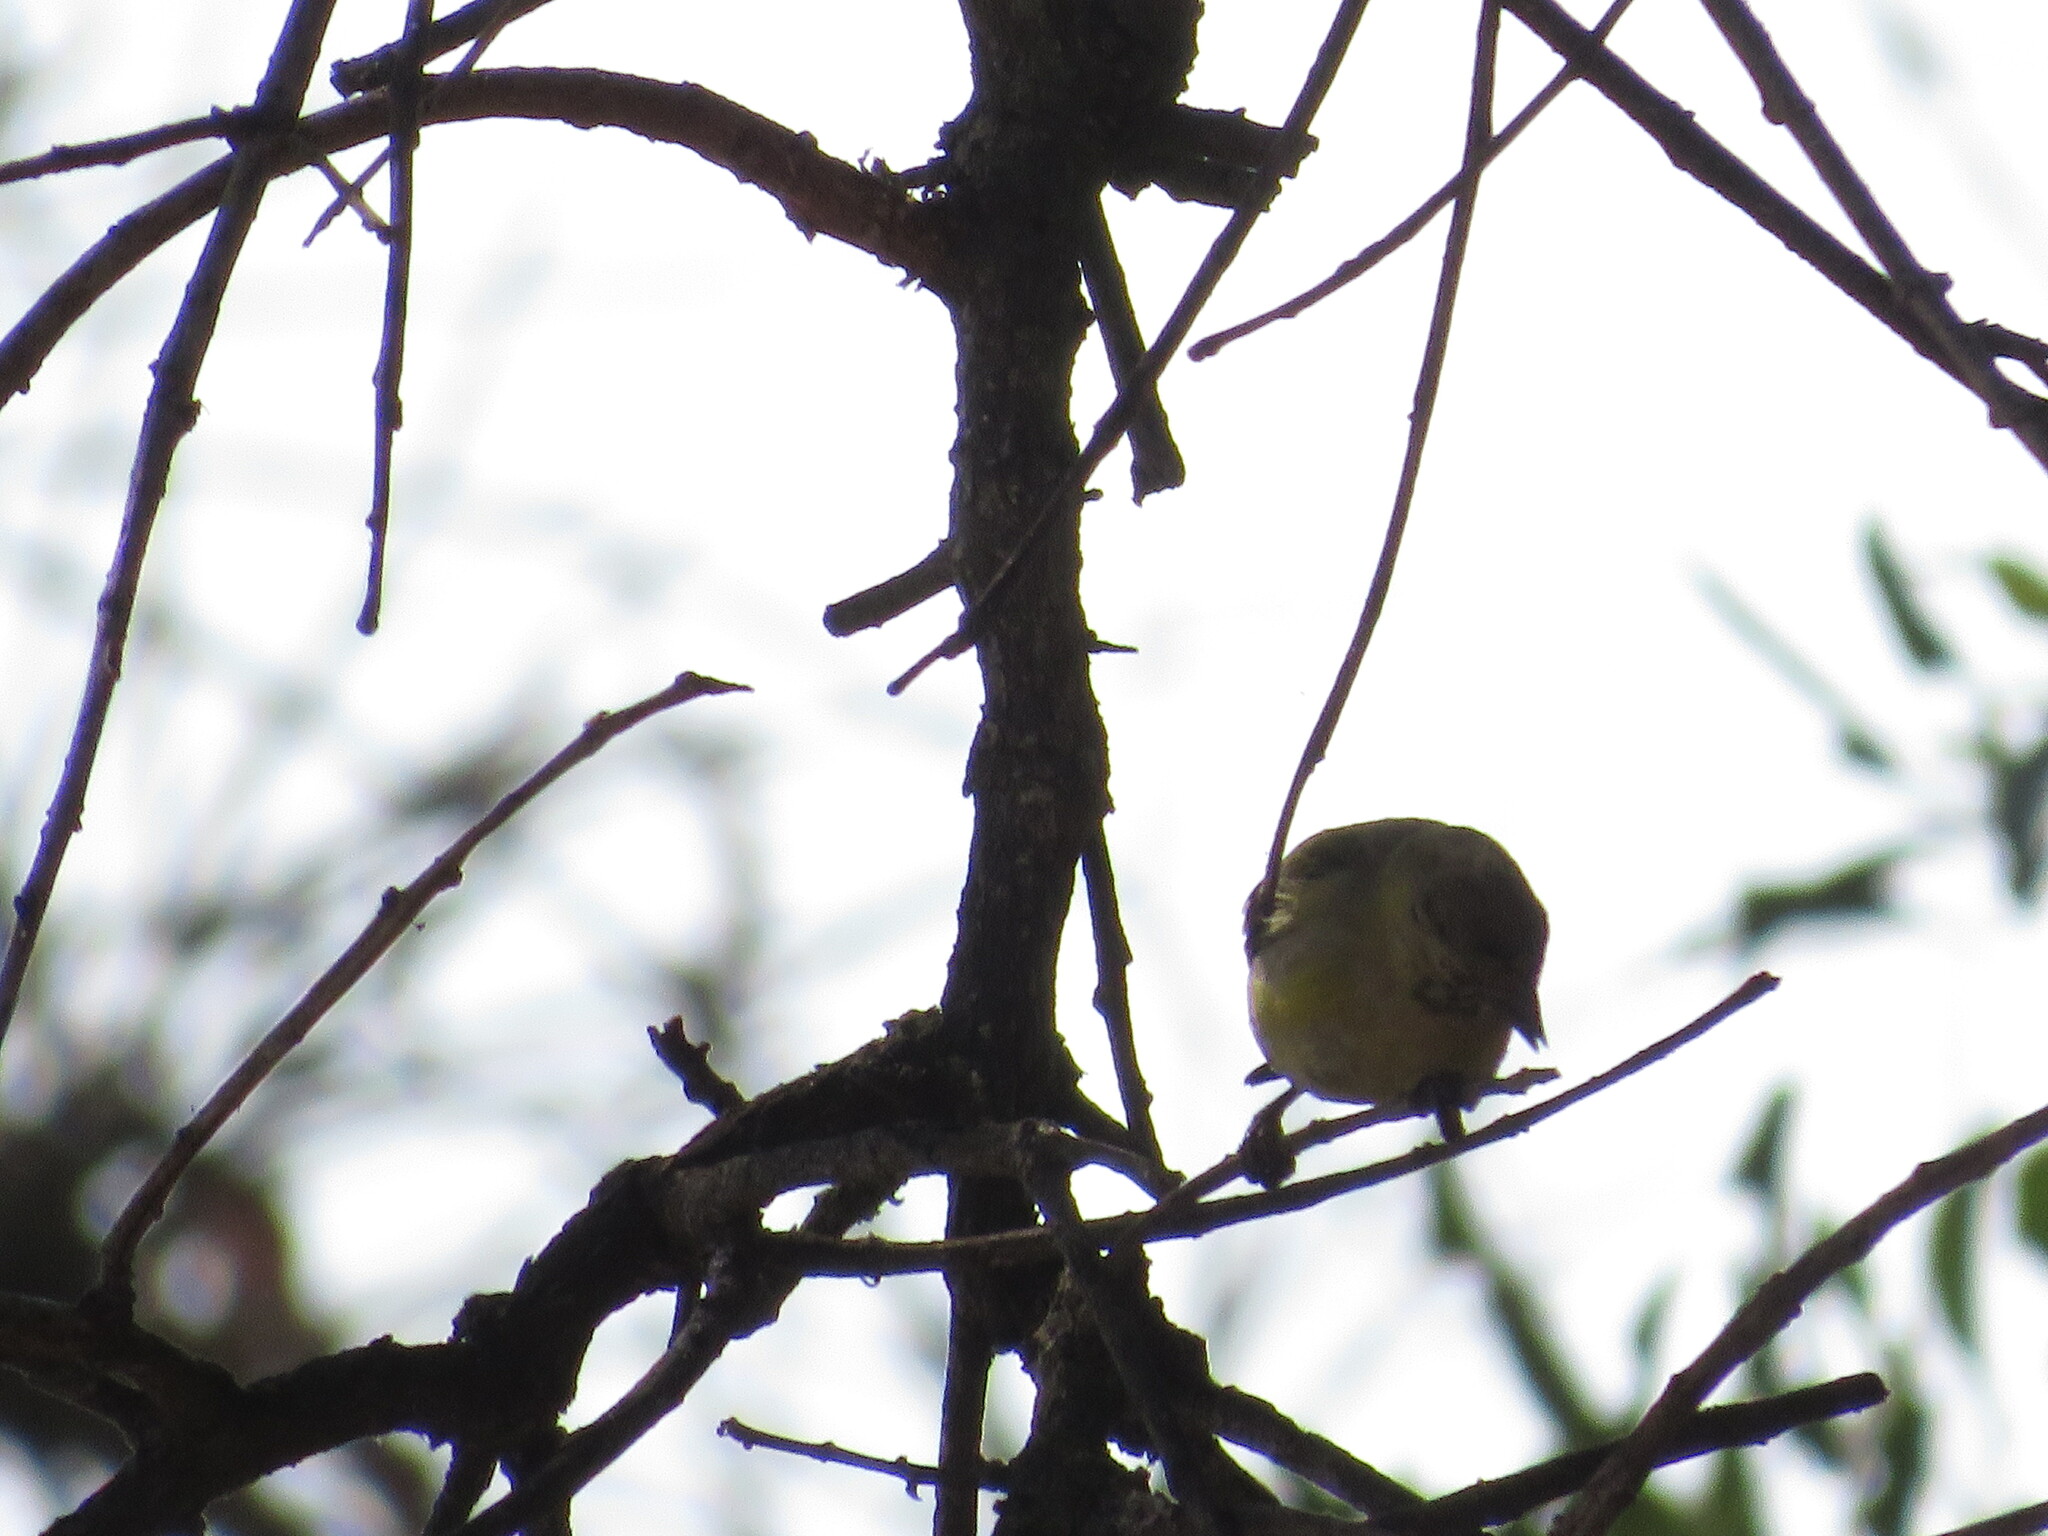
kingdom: Animalia
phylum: Chordata
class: Aves
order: Passeriformes
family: Fringillidae
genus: Spinus
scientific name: Spinus magellanicus
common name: Hooded siskin
